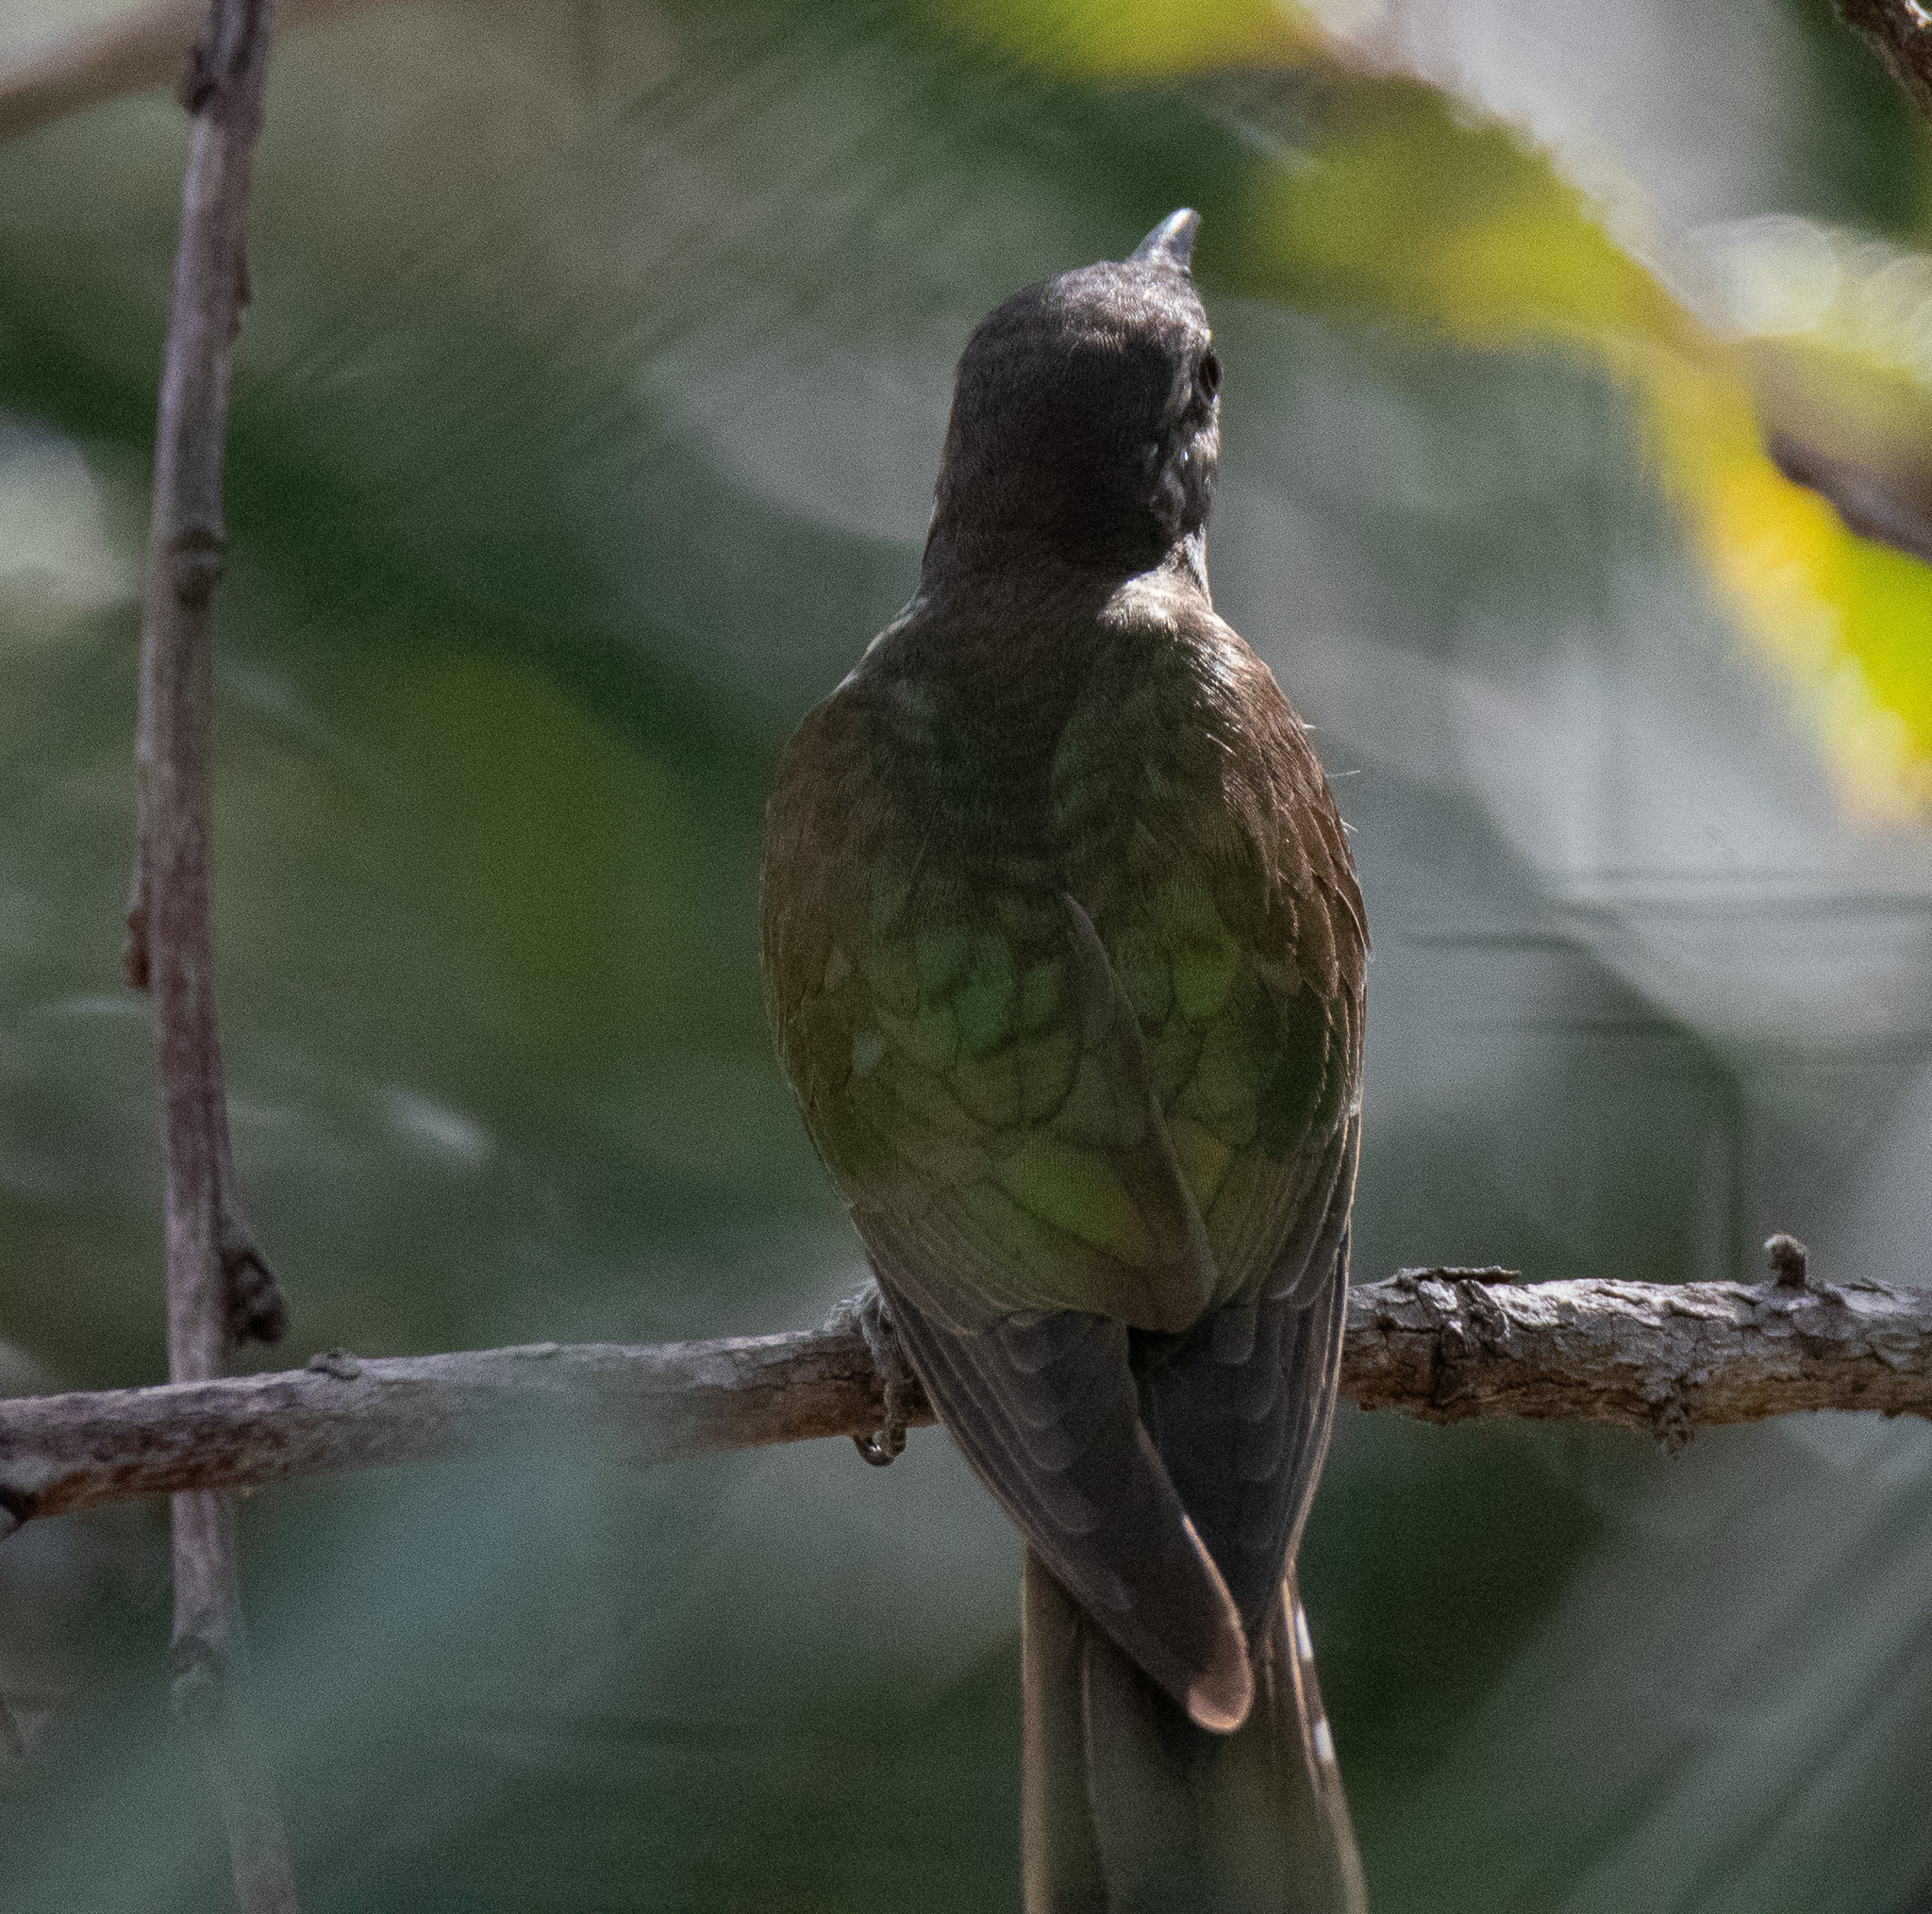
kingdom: Animalia
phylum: Chordata
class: Aves
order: Cuculiformes
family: Cuculidae
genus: Chrysococcyx
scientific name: Chrysococcyx lucidus
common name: Shining bronze cuckoo
